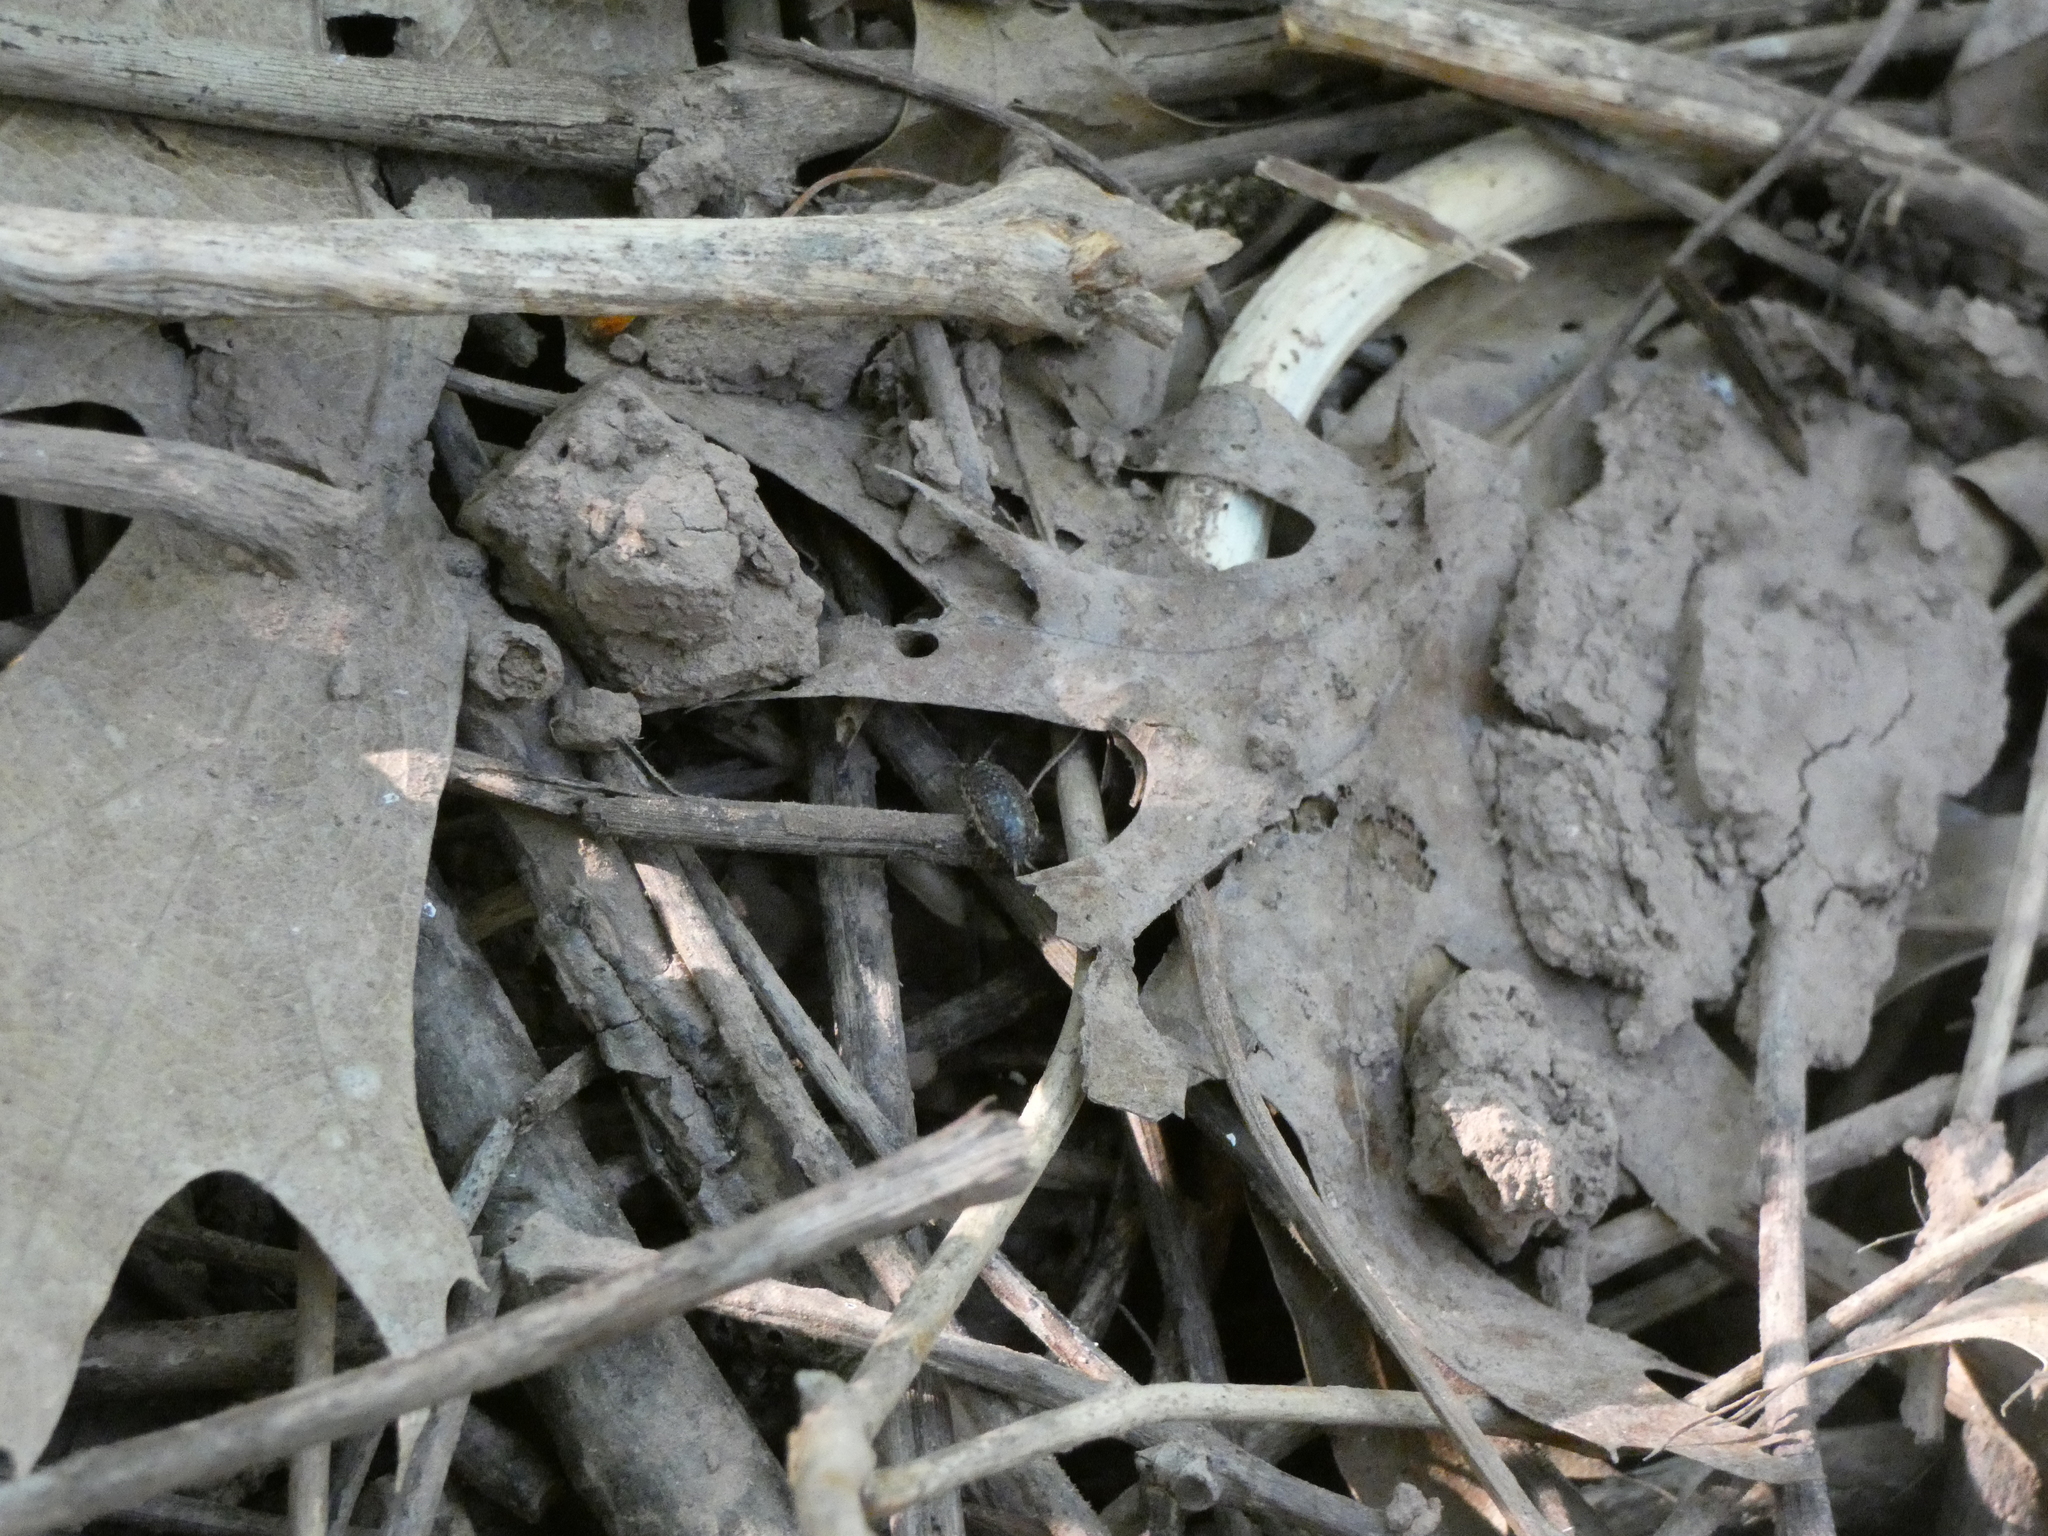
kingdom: Animalia
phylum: Arthropoda
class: Malacostraca
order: Isopoda
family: Philosciidae
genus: Philoscia
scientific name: Philoscia muscorum
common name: Common striped woodlouse
